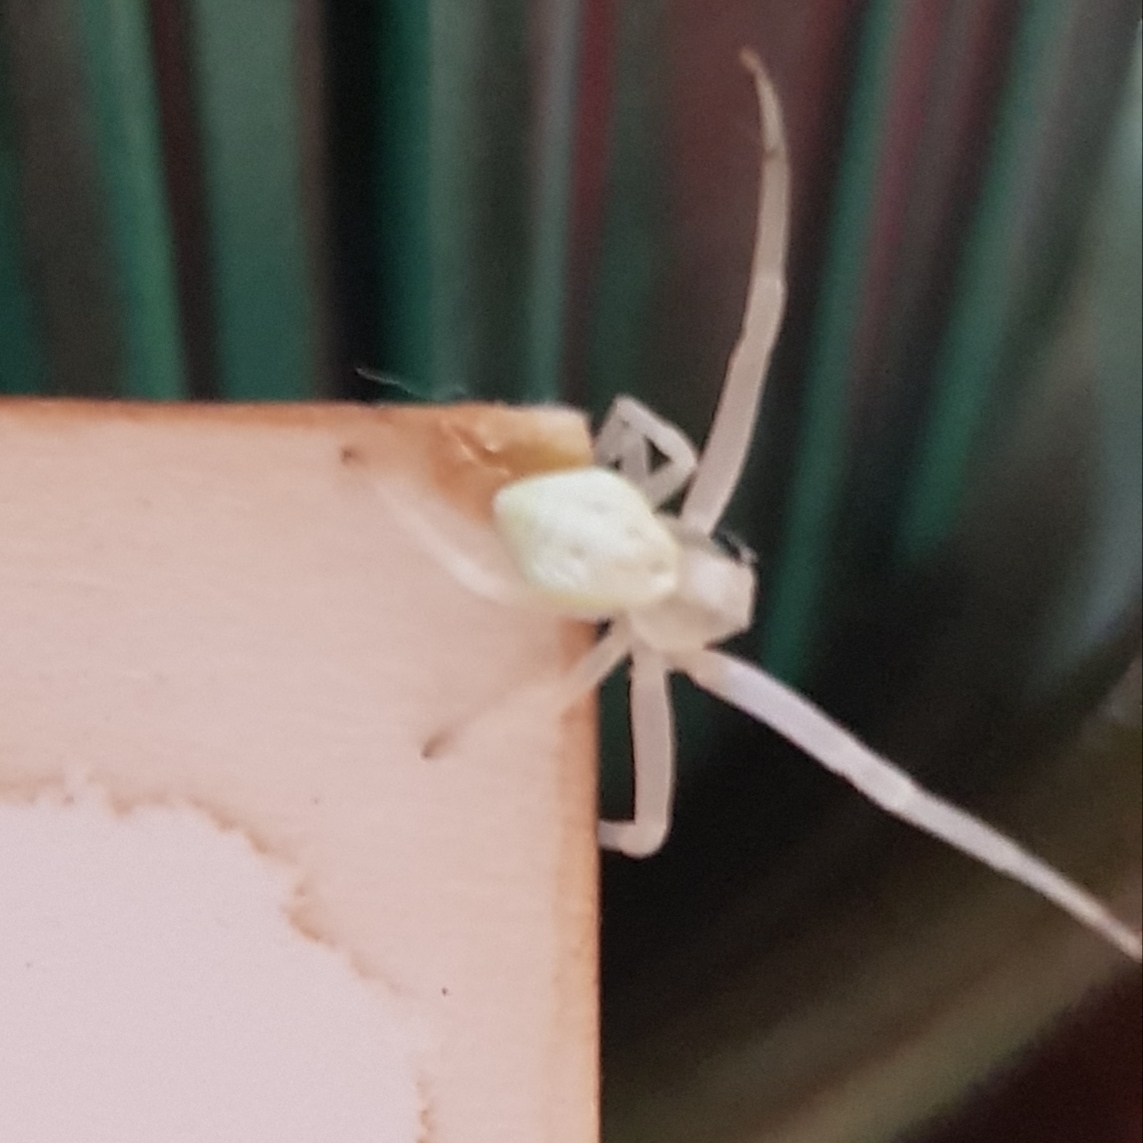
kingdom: Animalia
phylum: Arthropoda
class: Arachnida
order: Araneae
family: Thomisidae
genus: Misumena
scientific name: Misumena vatia
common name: Goldenrod crab spider
